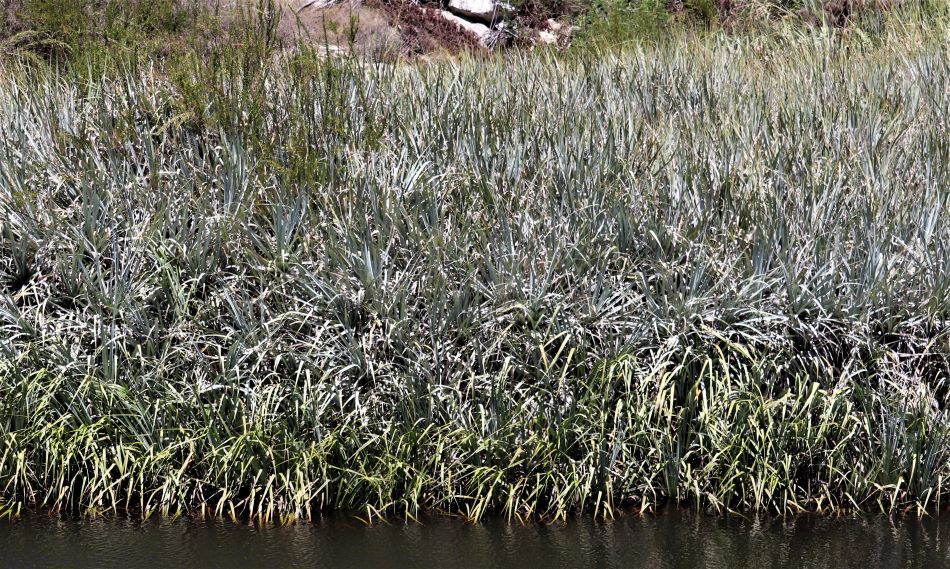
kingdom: Plantae
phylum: Tracheophyta
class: Liliopsida
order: Poales
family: Thurniaceae
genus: Prionium
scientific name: Prionium serratum
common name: Palmiet
